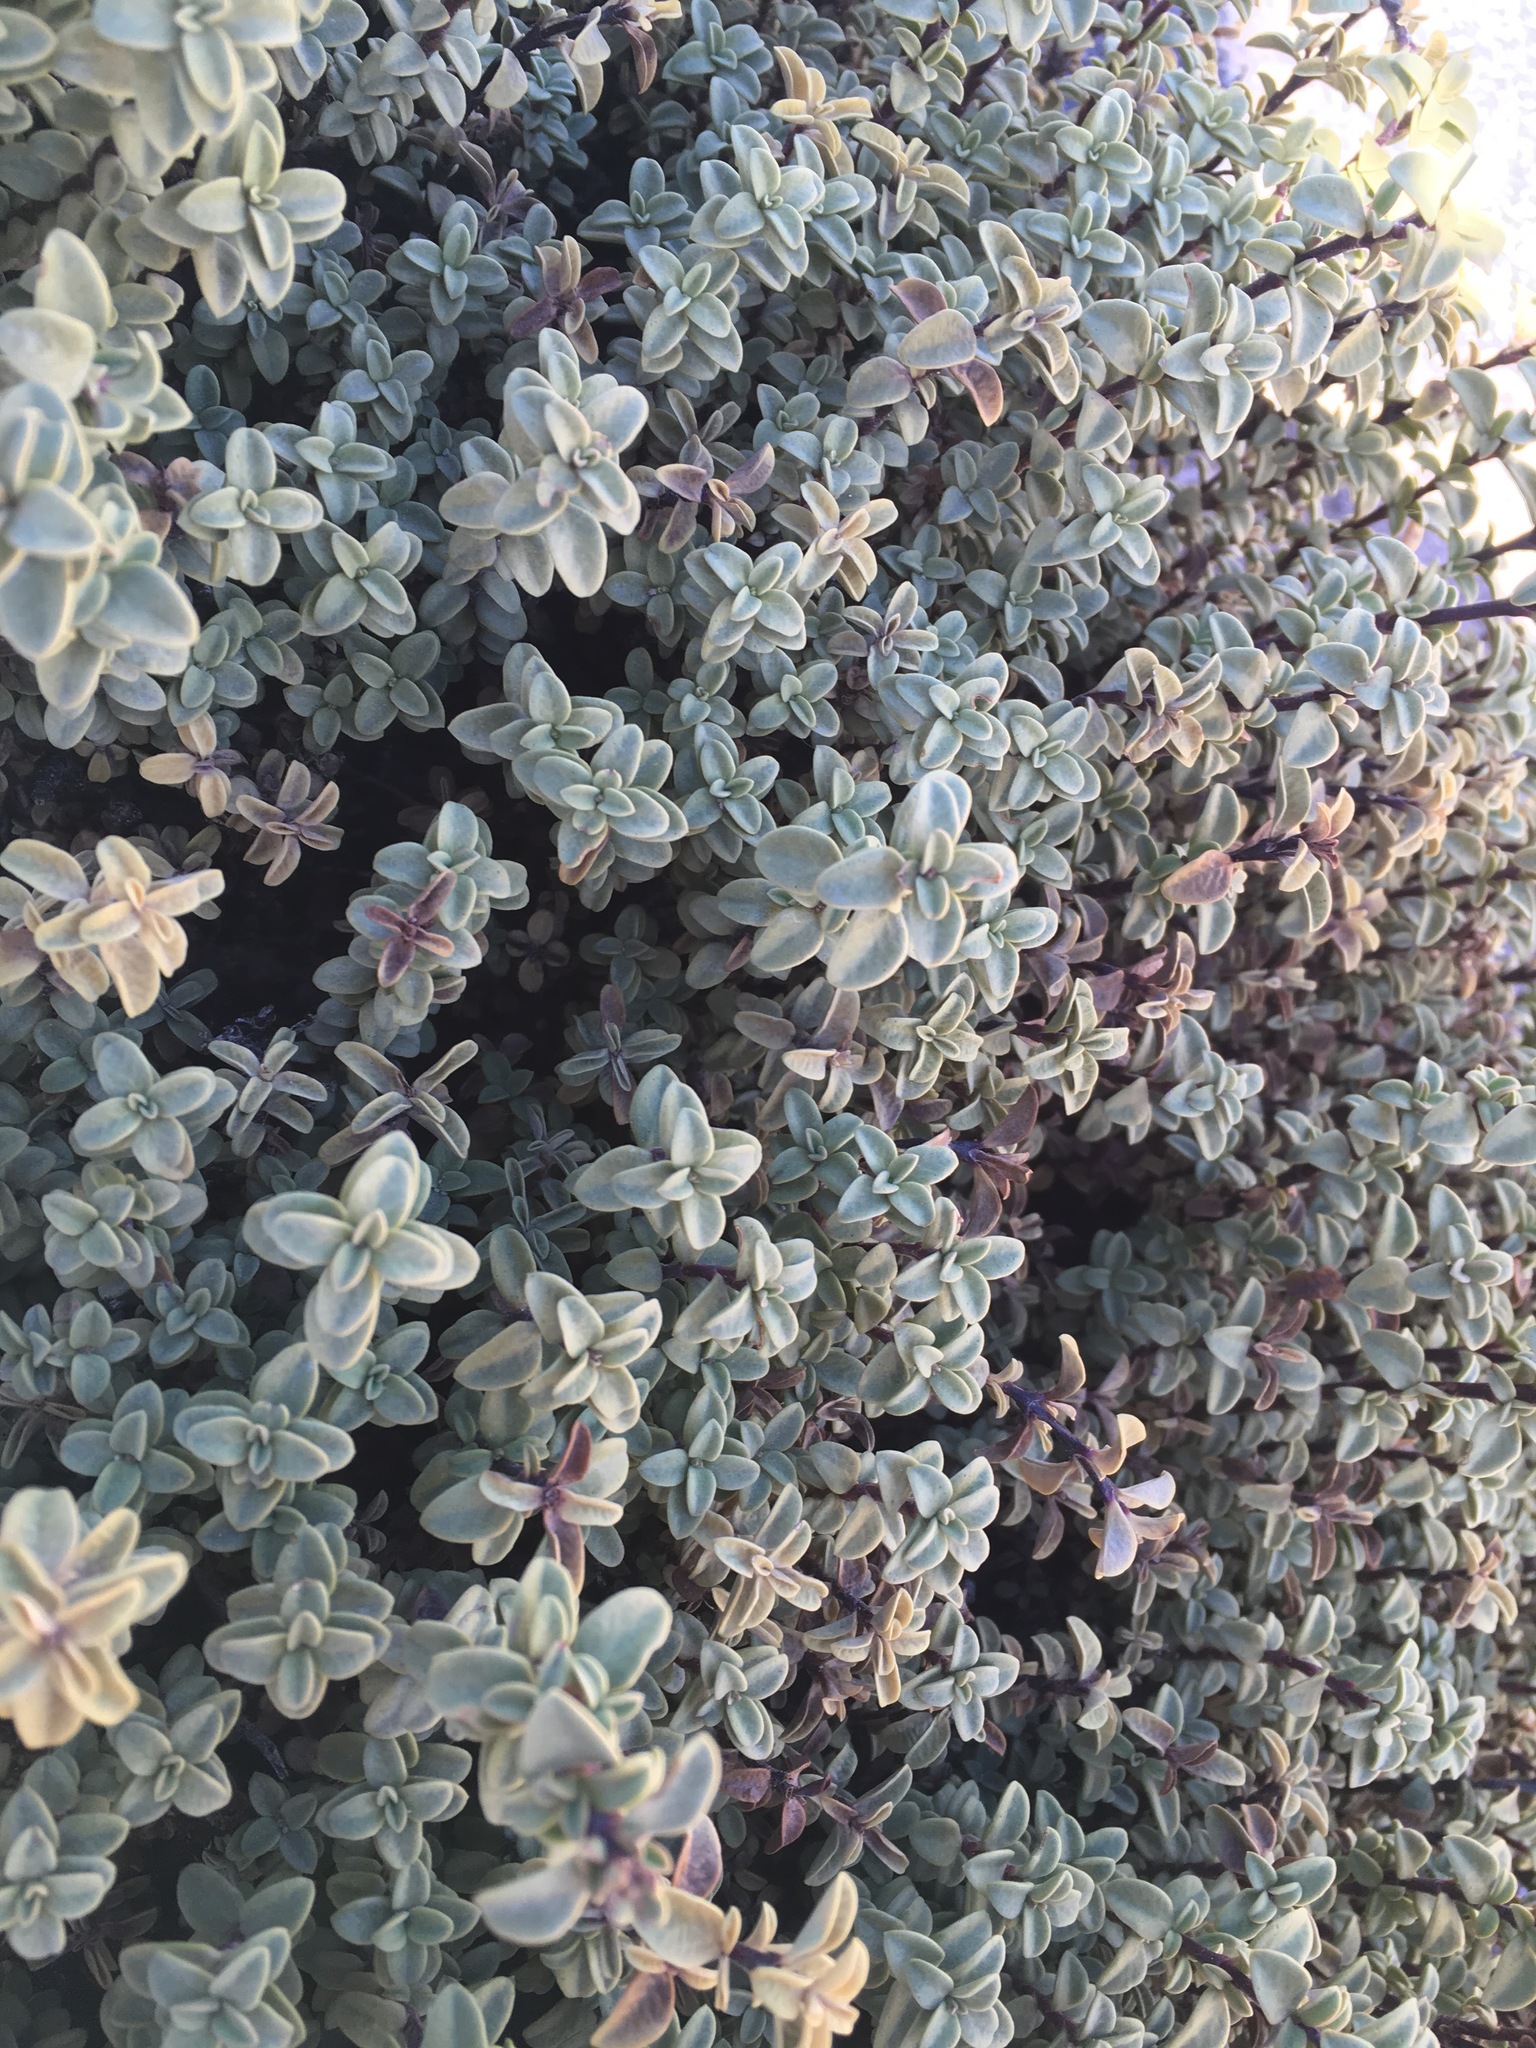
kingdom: Plantae
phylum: Tracheophyta
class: Magnoliopsida
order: Lamiales
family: Verbenaceae
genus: Lampayo
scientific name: Lampayo officinalis
